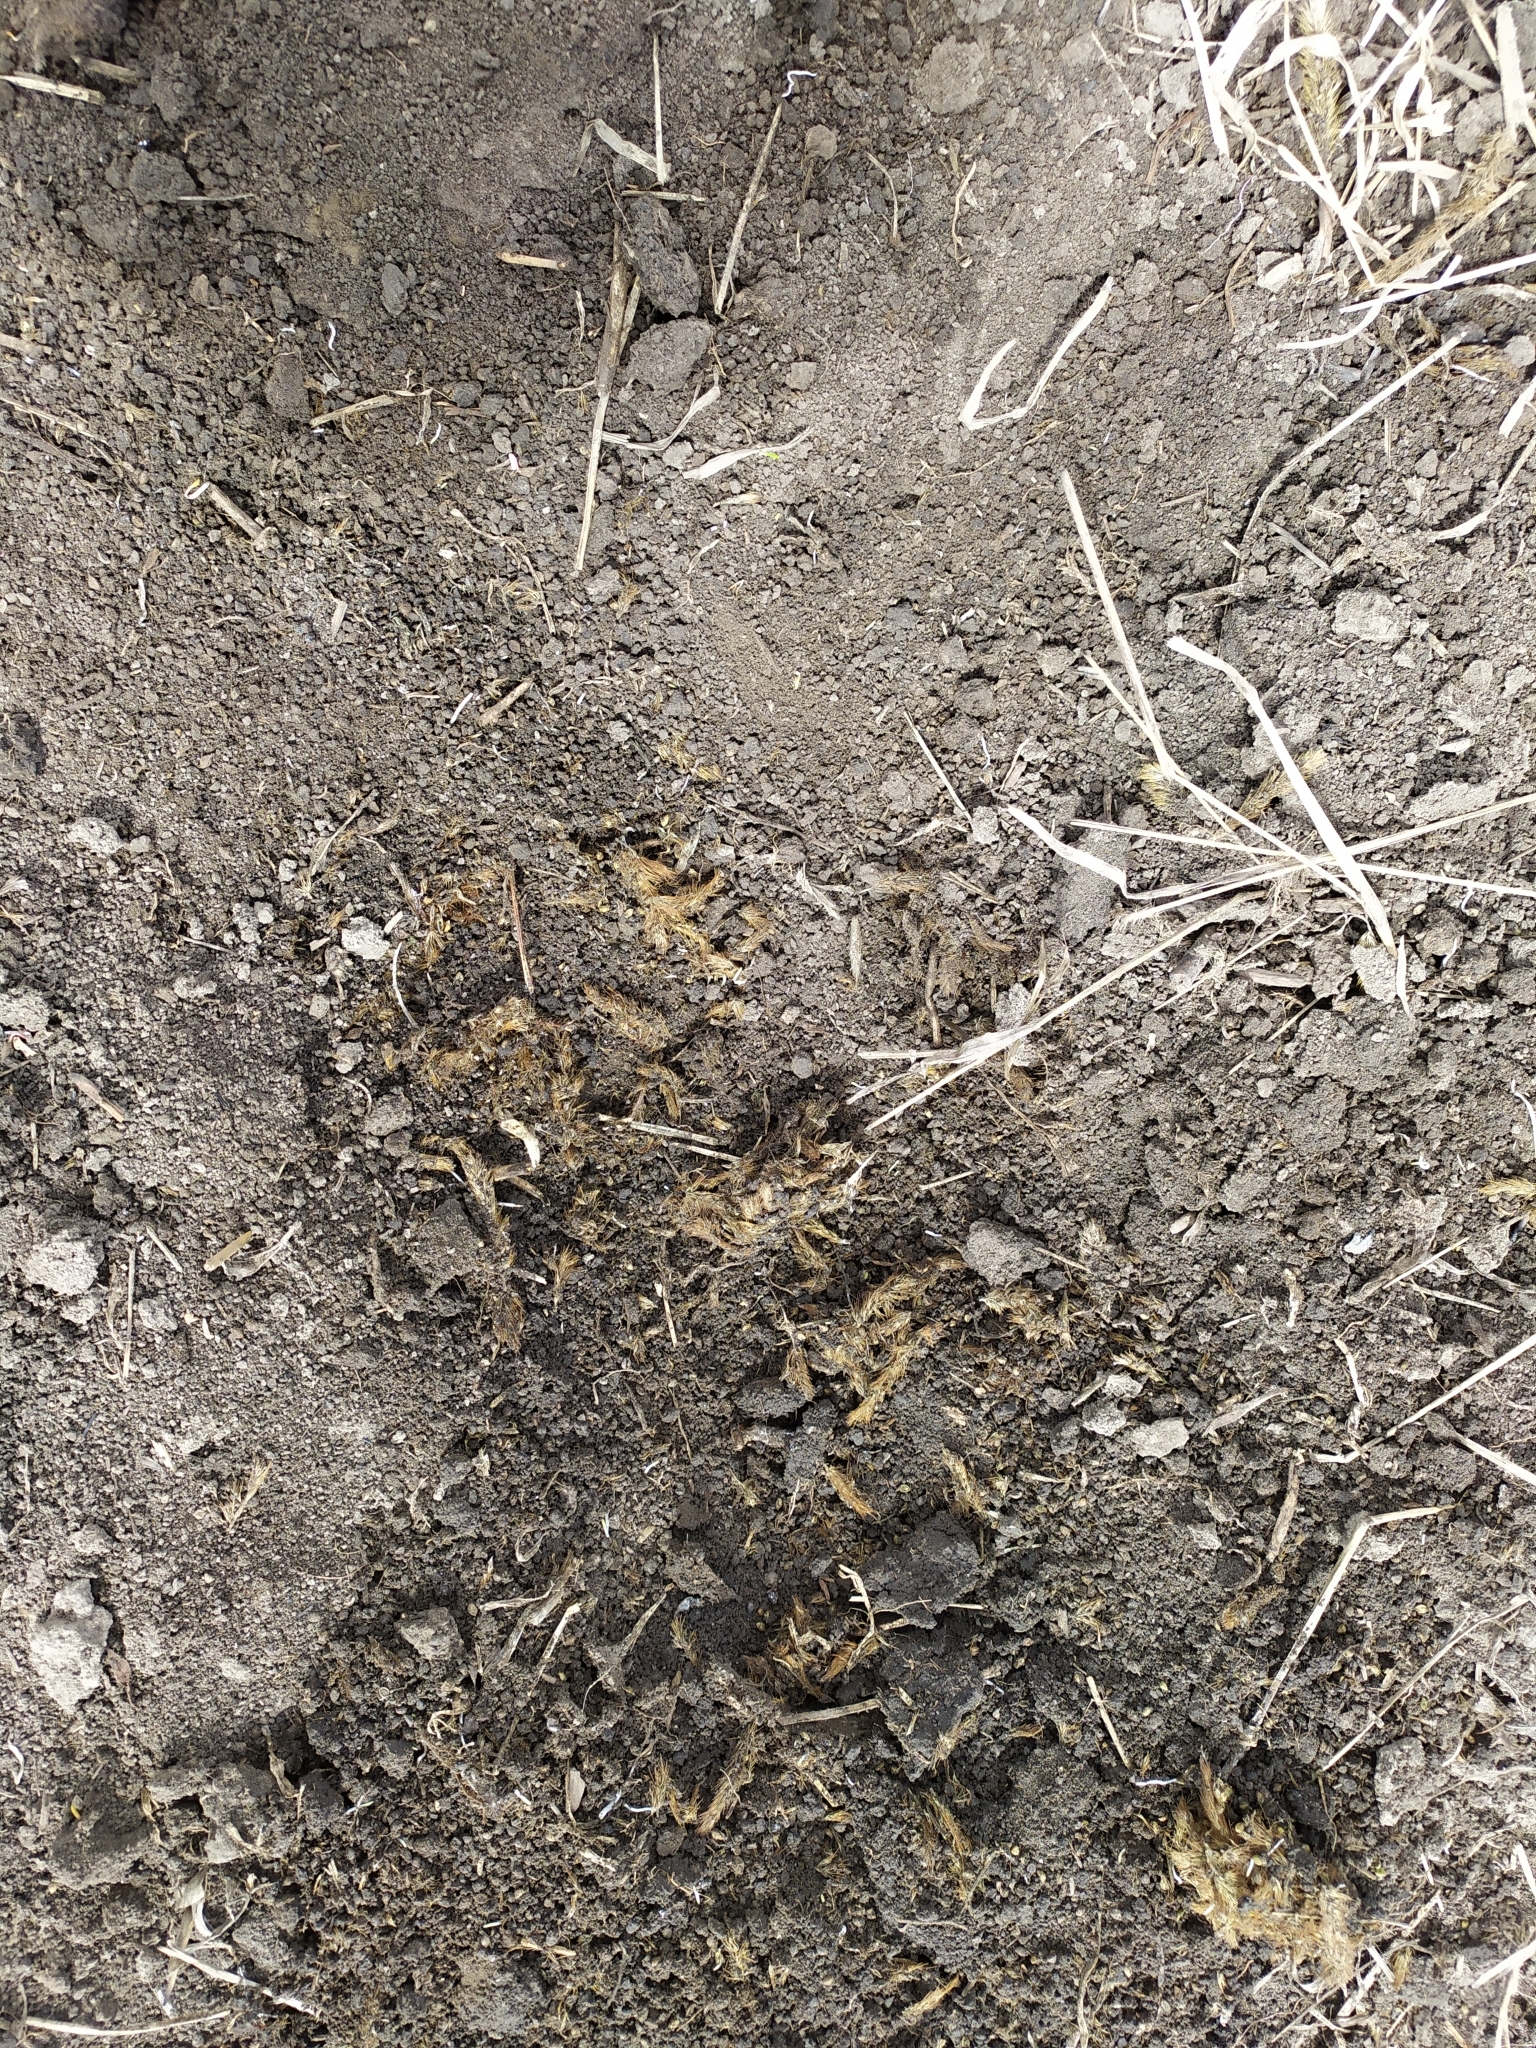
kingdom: Animalia
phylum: Chordata
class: Mammalia
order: Rodentia
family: Muridae
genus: Mus
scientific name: Mus spicilegus
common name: Mound-building mouse
